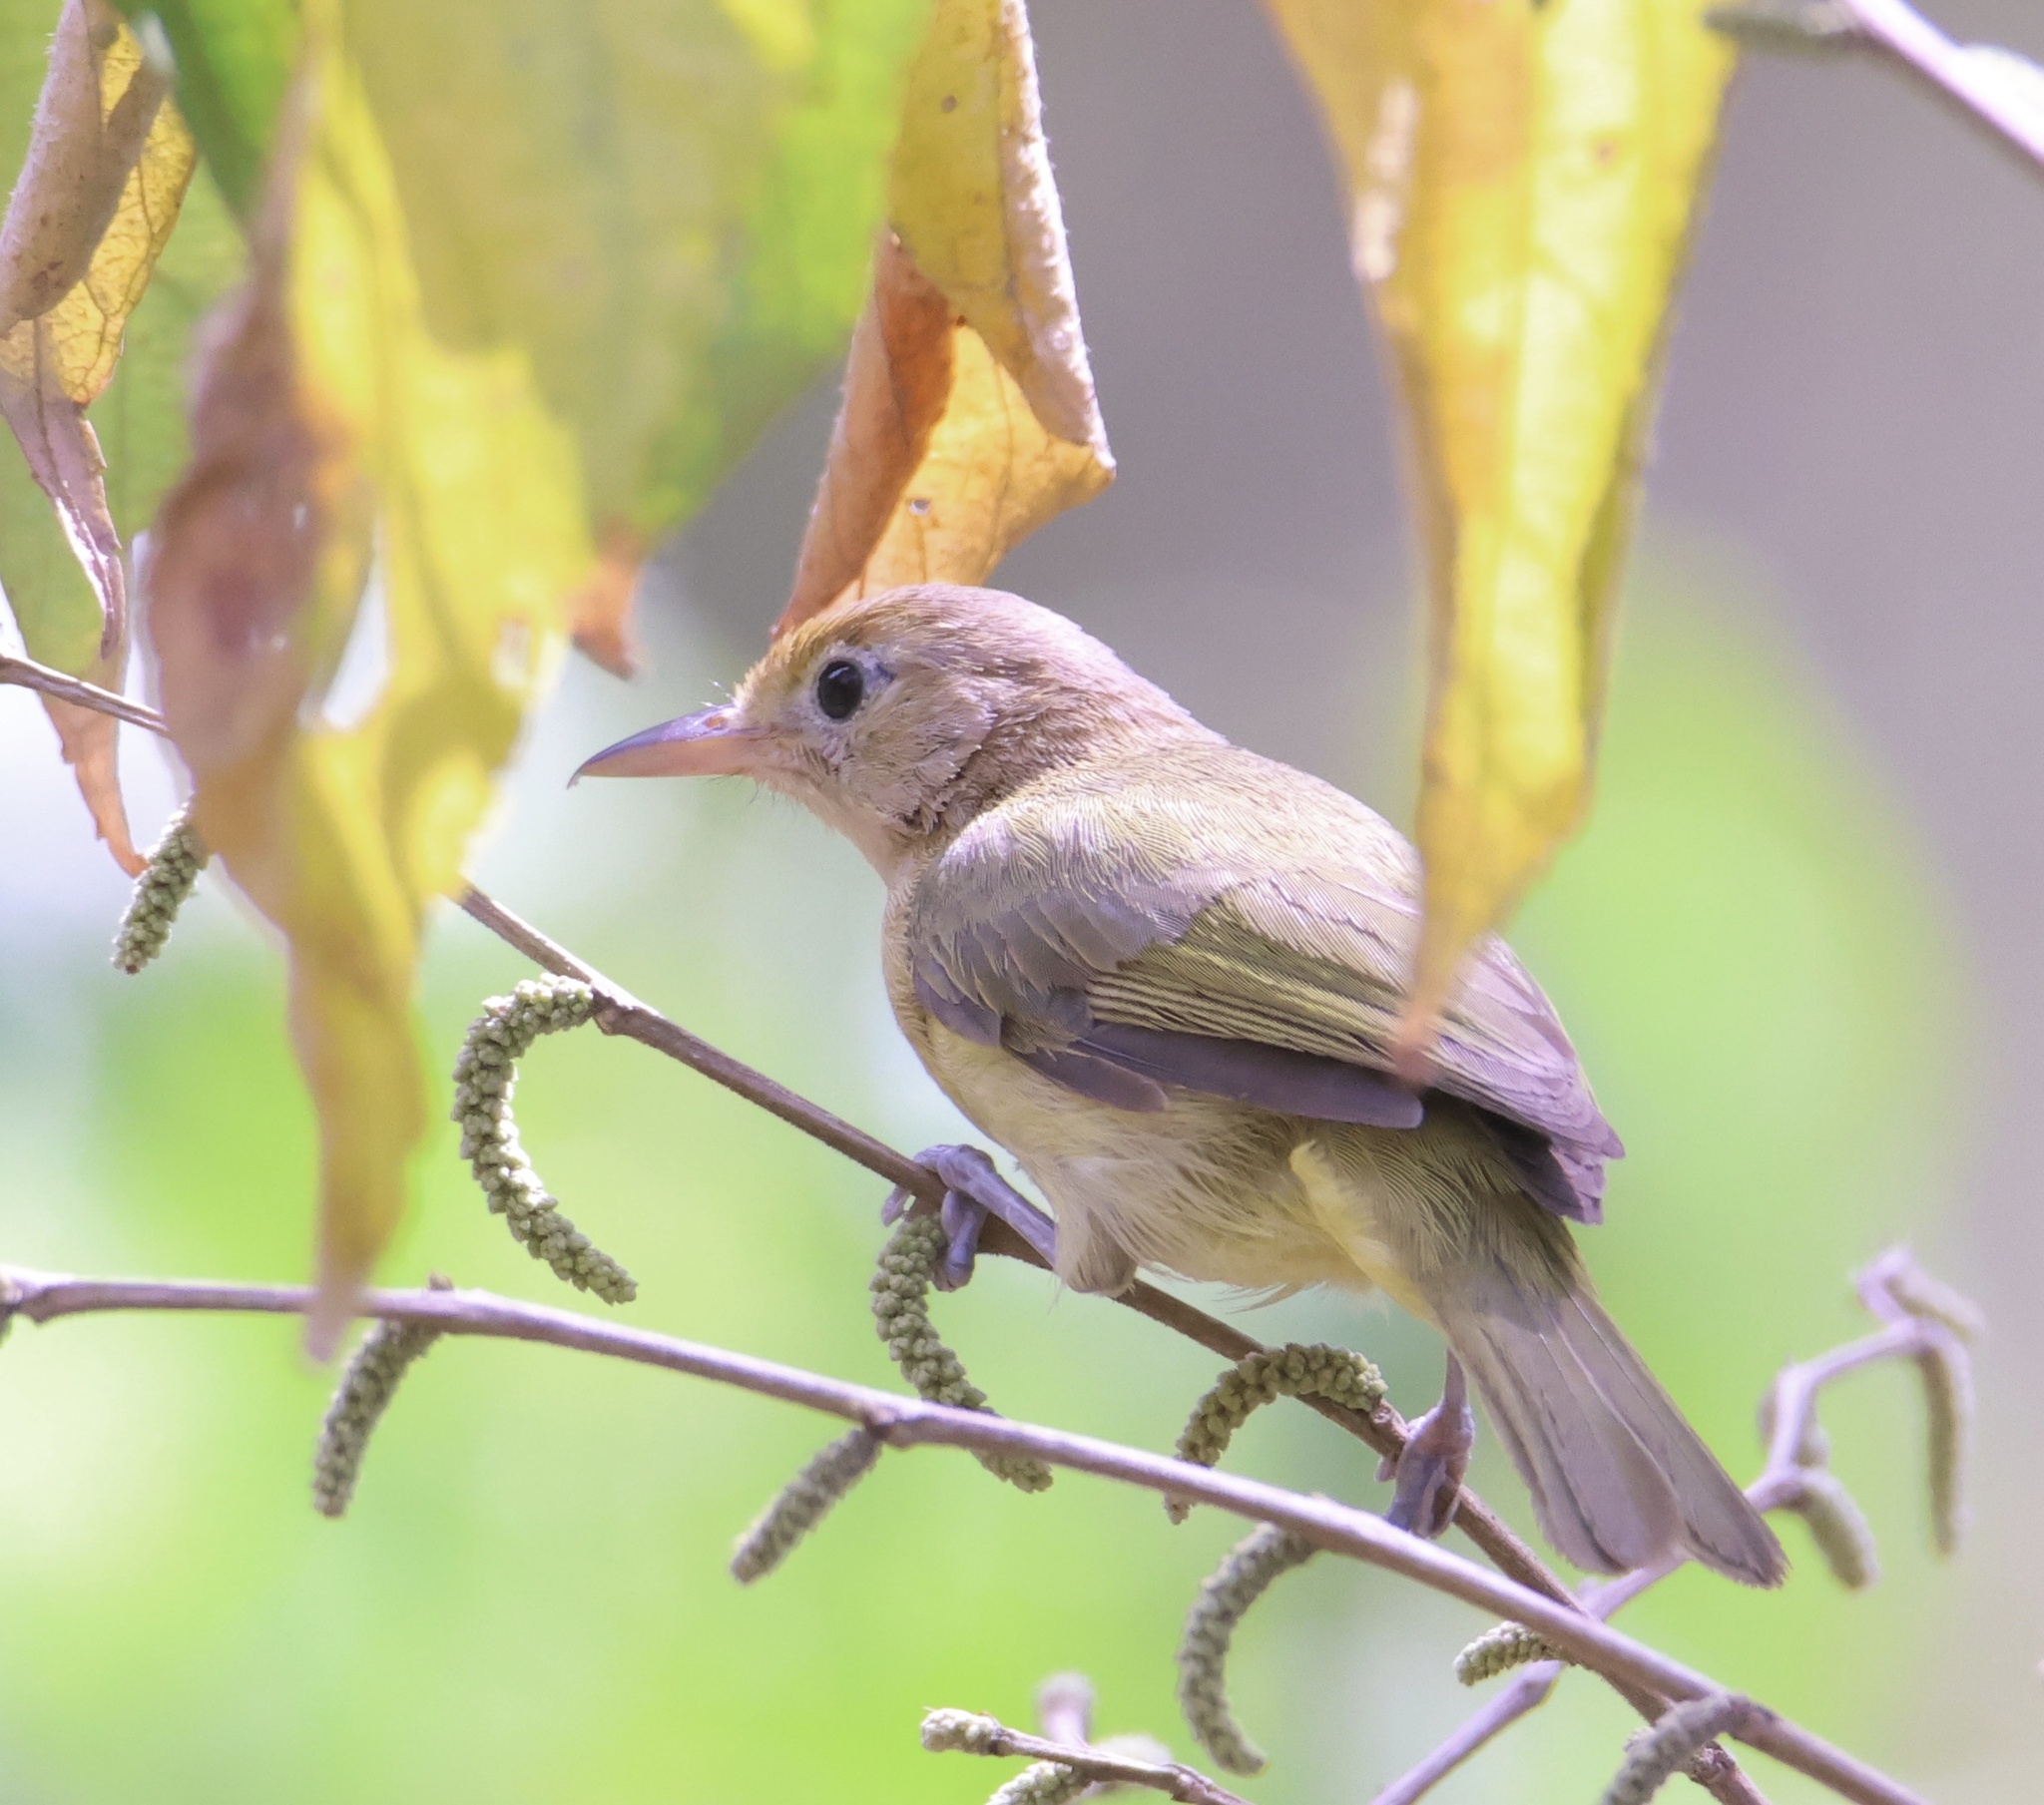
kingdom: Animalia
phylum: Chordata
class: Aves
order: Passeriformes
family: Vireonidae
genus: Hylophilus
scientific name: Hylophilus aurantiifrons
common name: Golden-fronted greenlet
